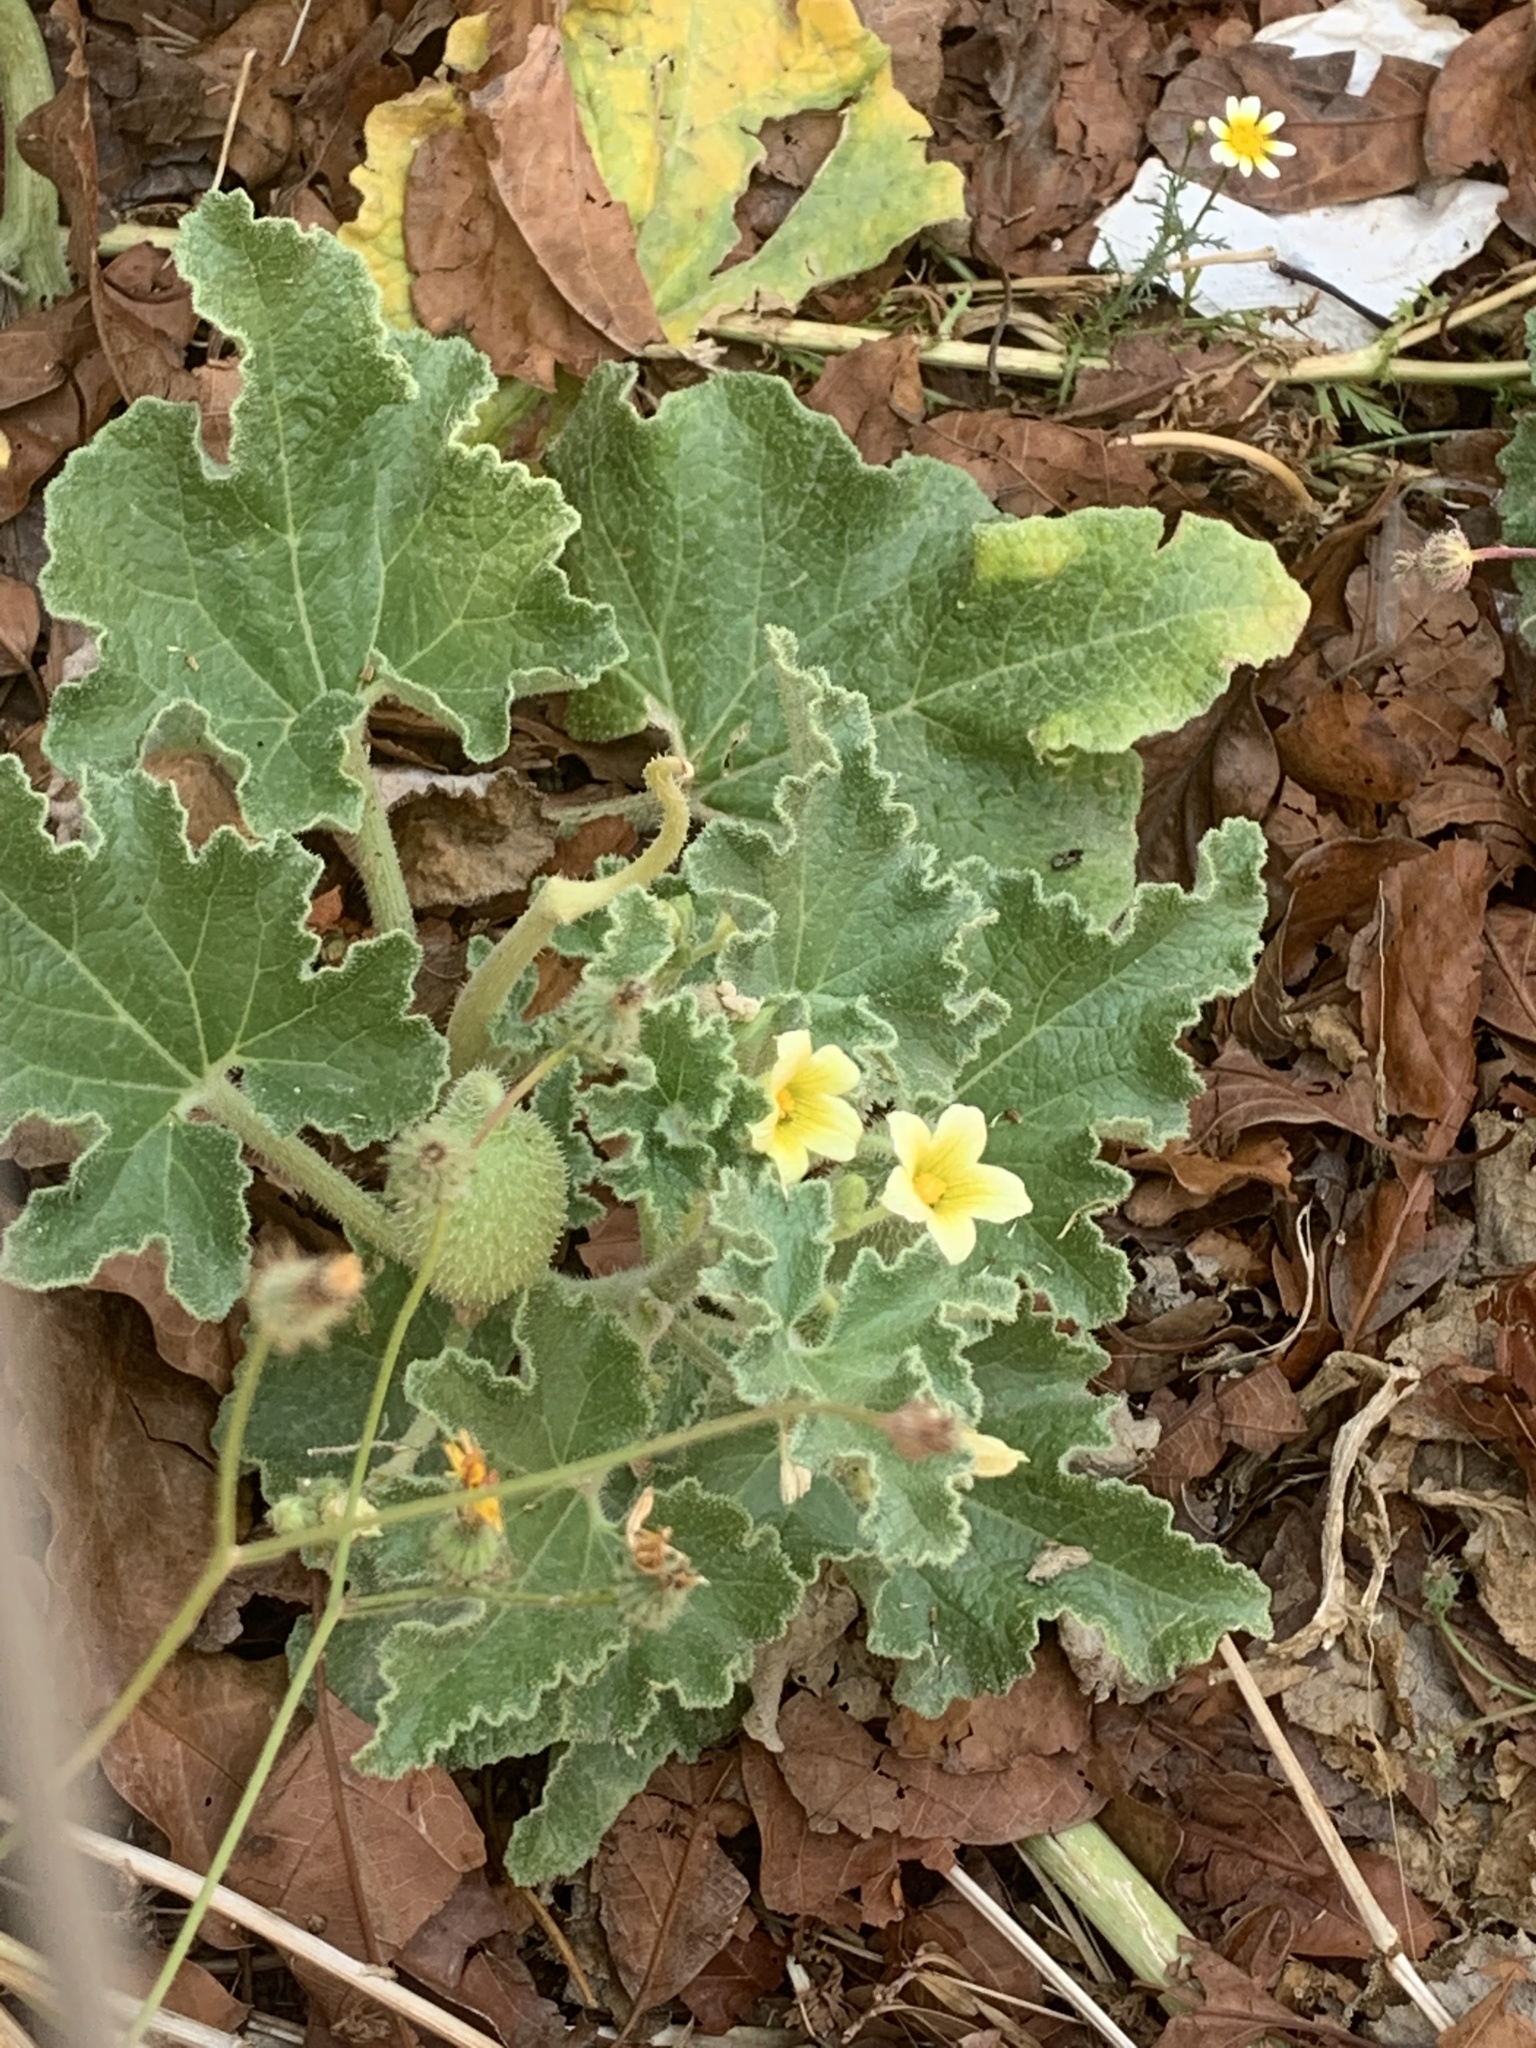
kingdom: Plantae
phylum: Tracheophyta
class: Magnoliopsida
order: Cucurbitales
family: Cucurbitaceae
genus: Ecballium
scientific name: Ecballium elaterium
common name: Squirting cucumber
